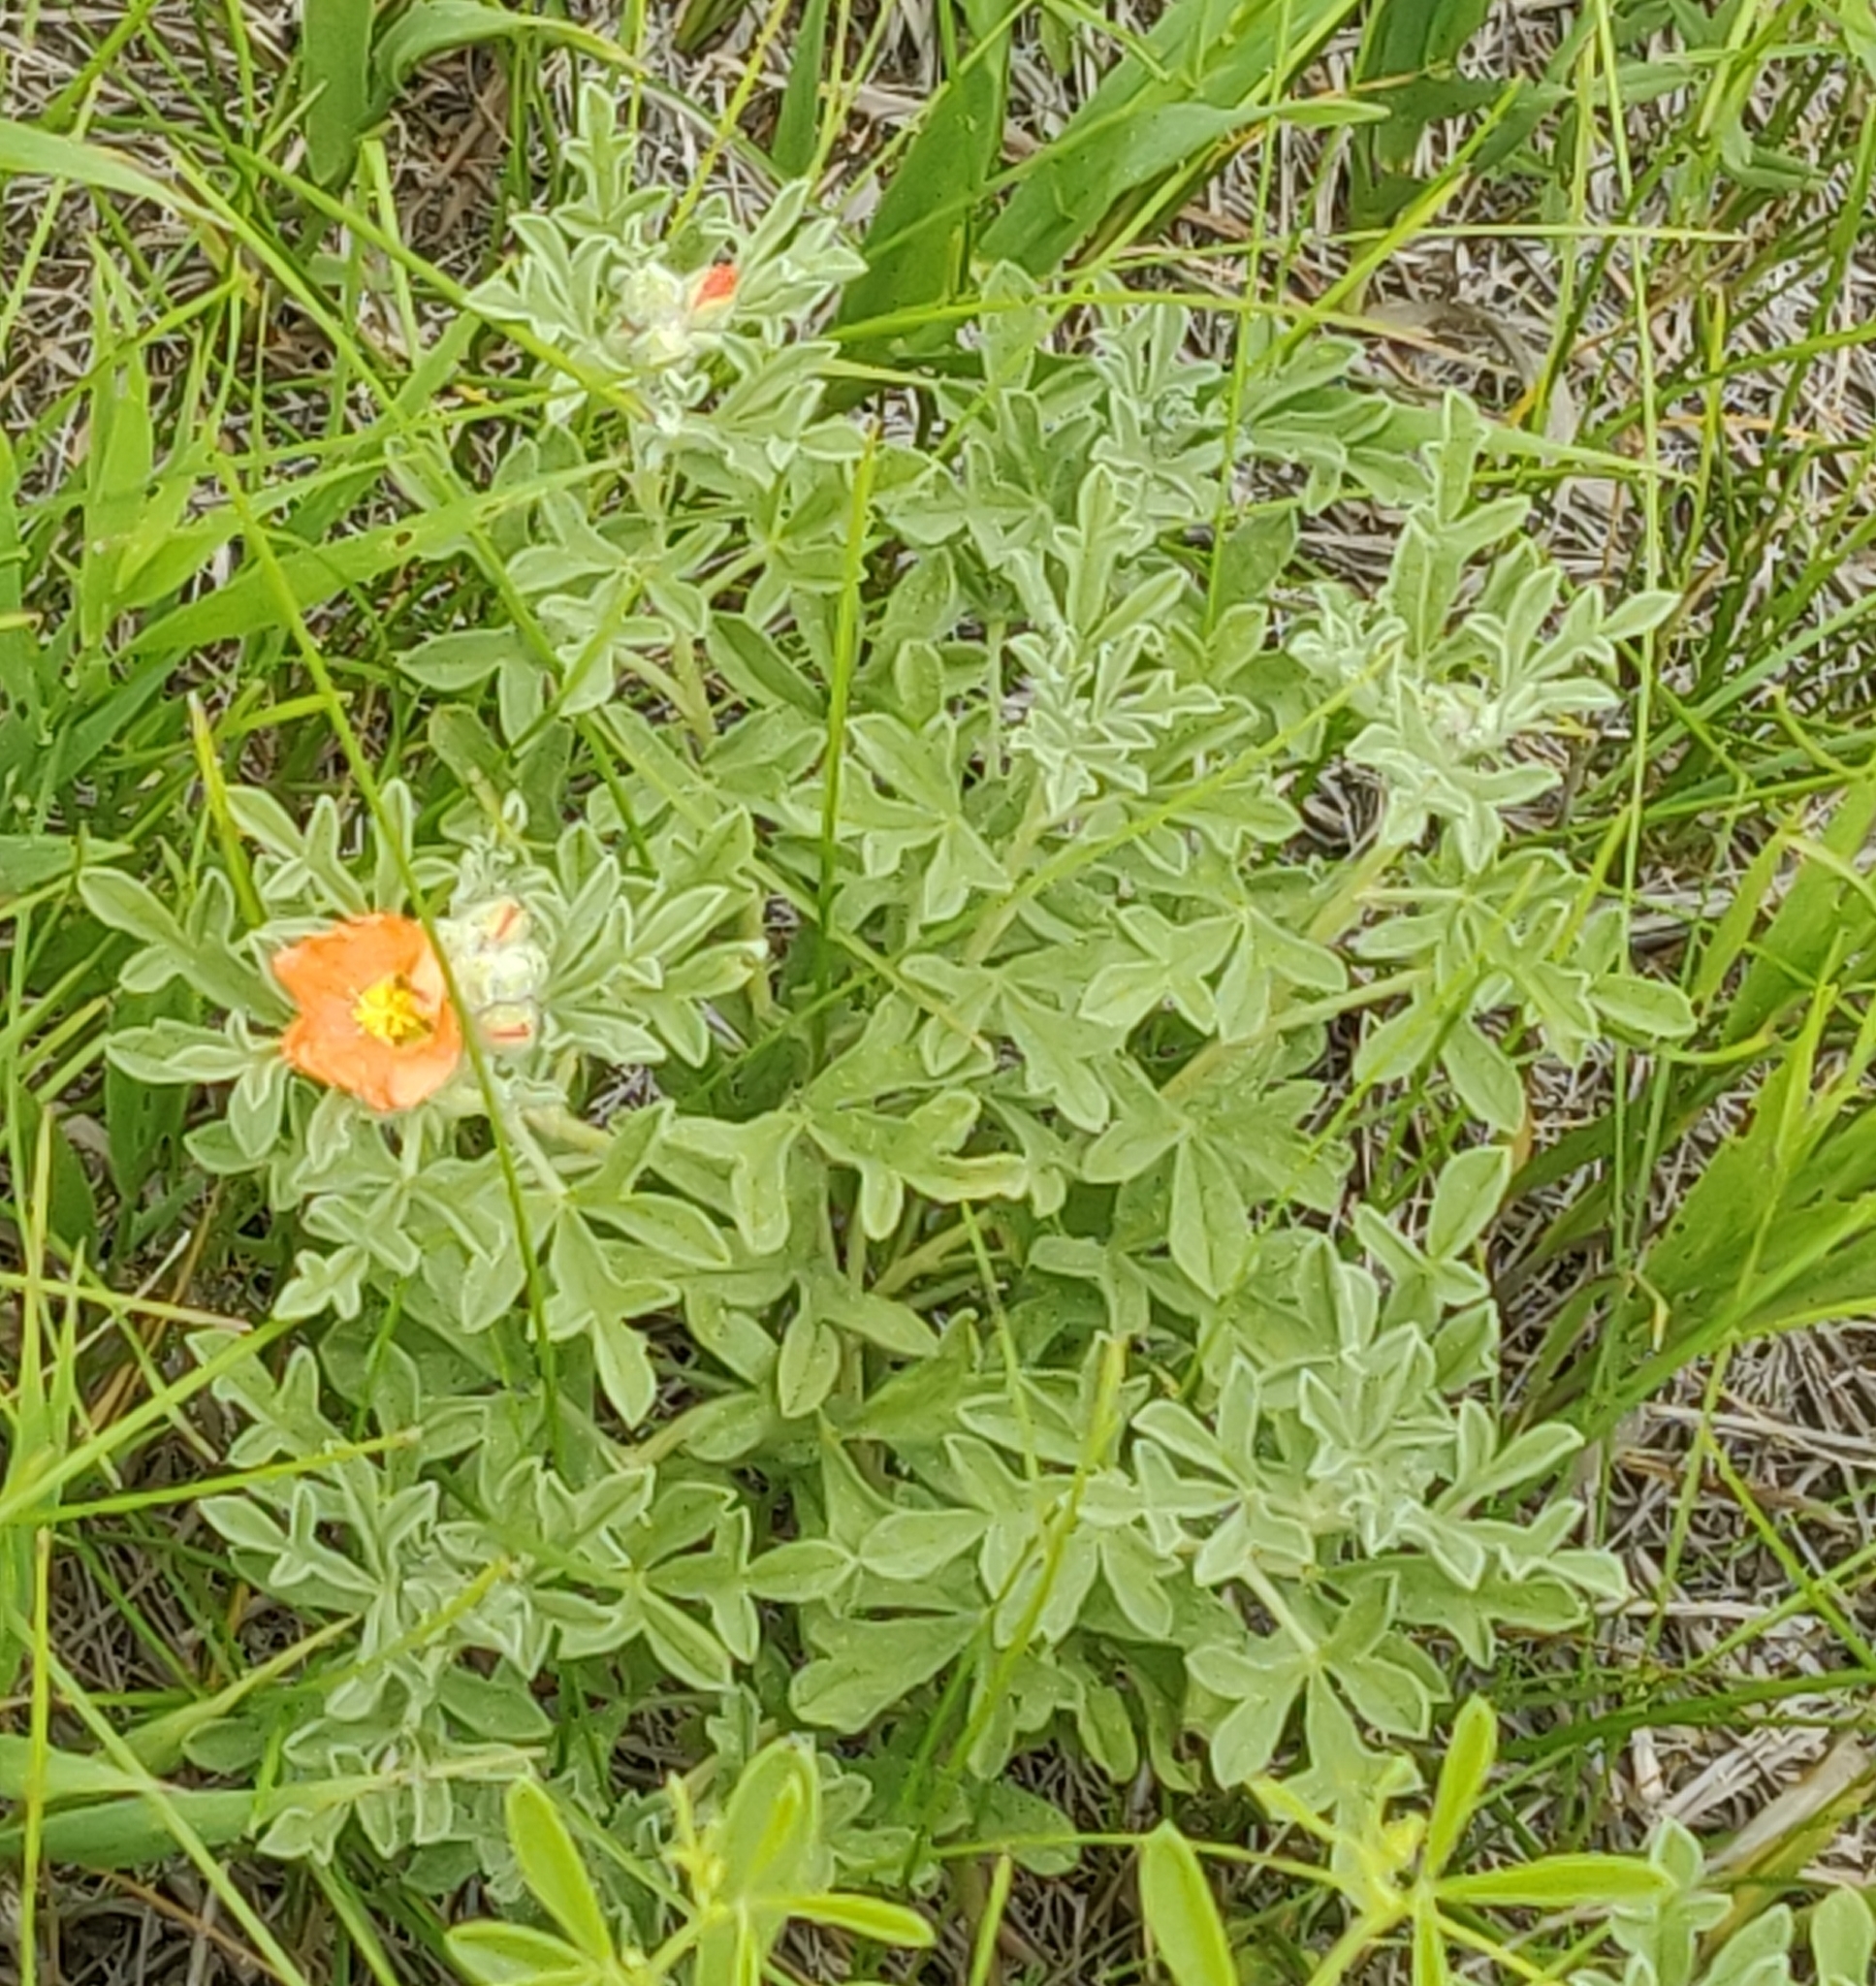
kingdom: Plantae
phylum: Tracheophyta
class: Magnoliopsida
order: Malvales
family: Malvaceae
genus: Sphaeralcea
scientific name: Sphaeralcea coccinea
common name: Moss-rose
